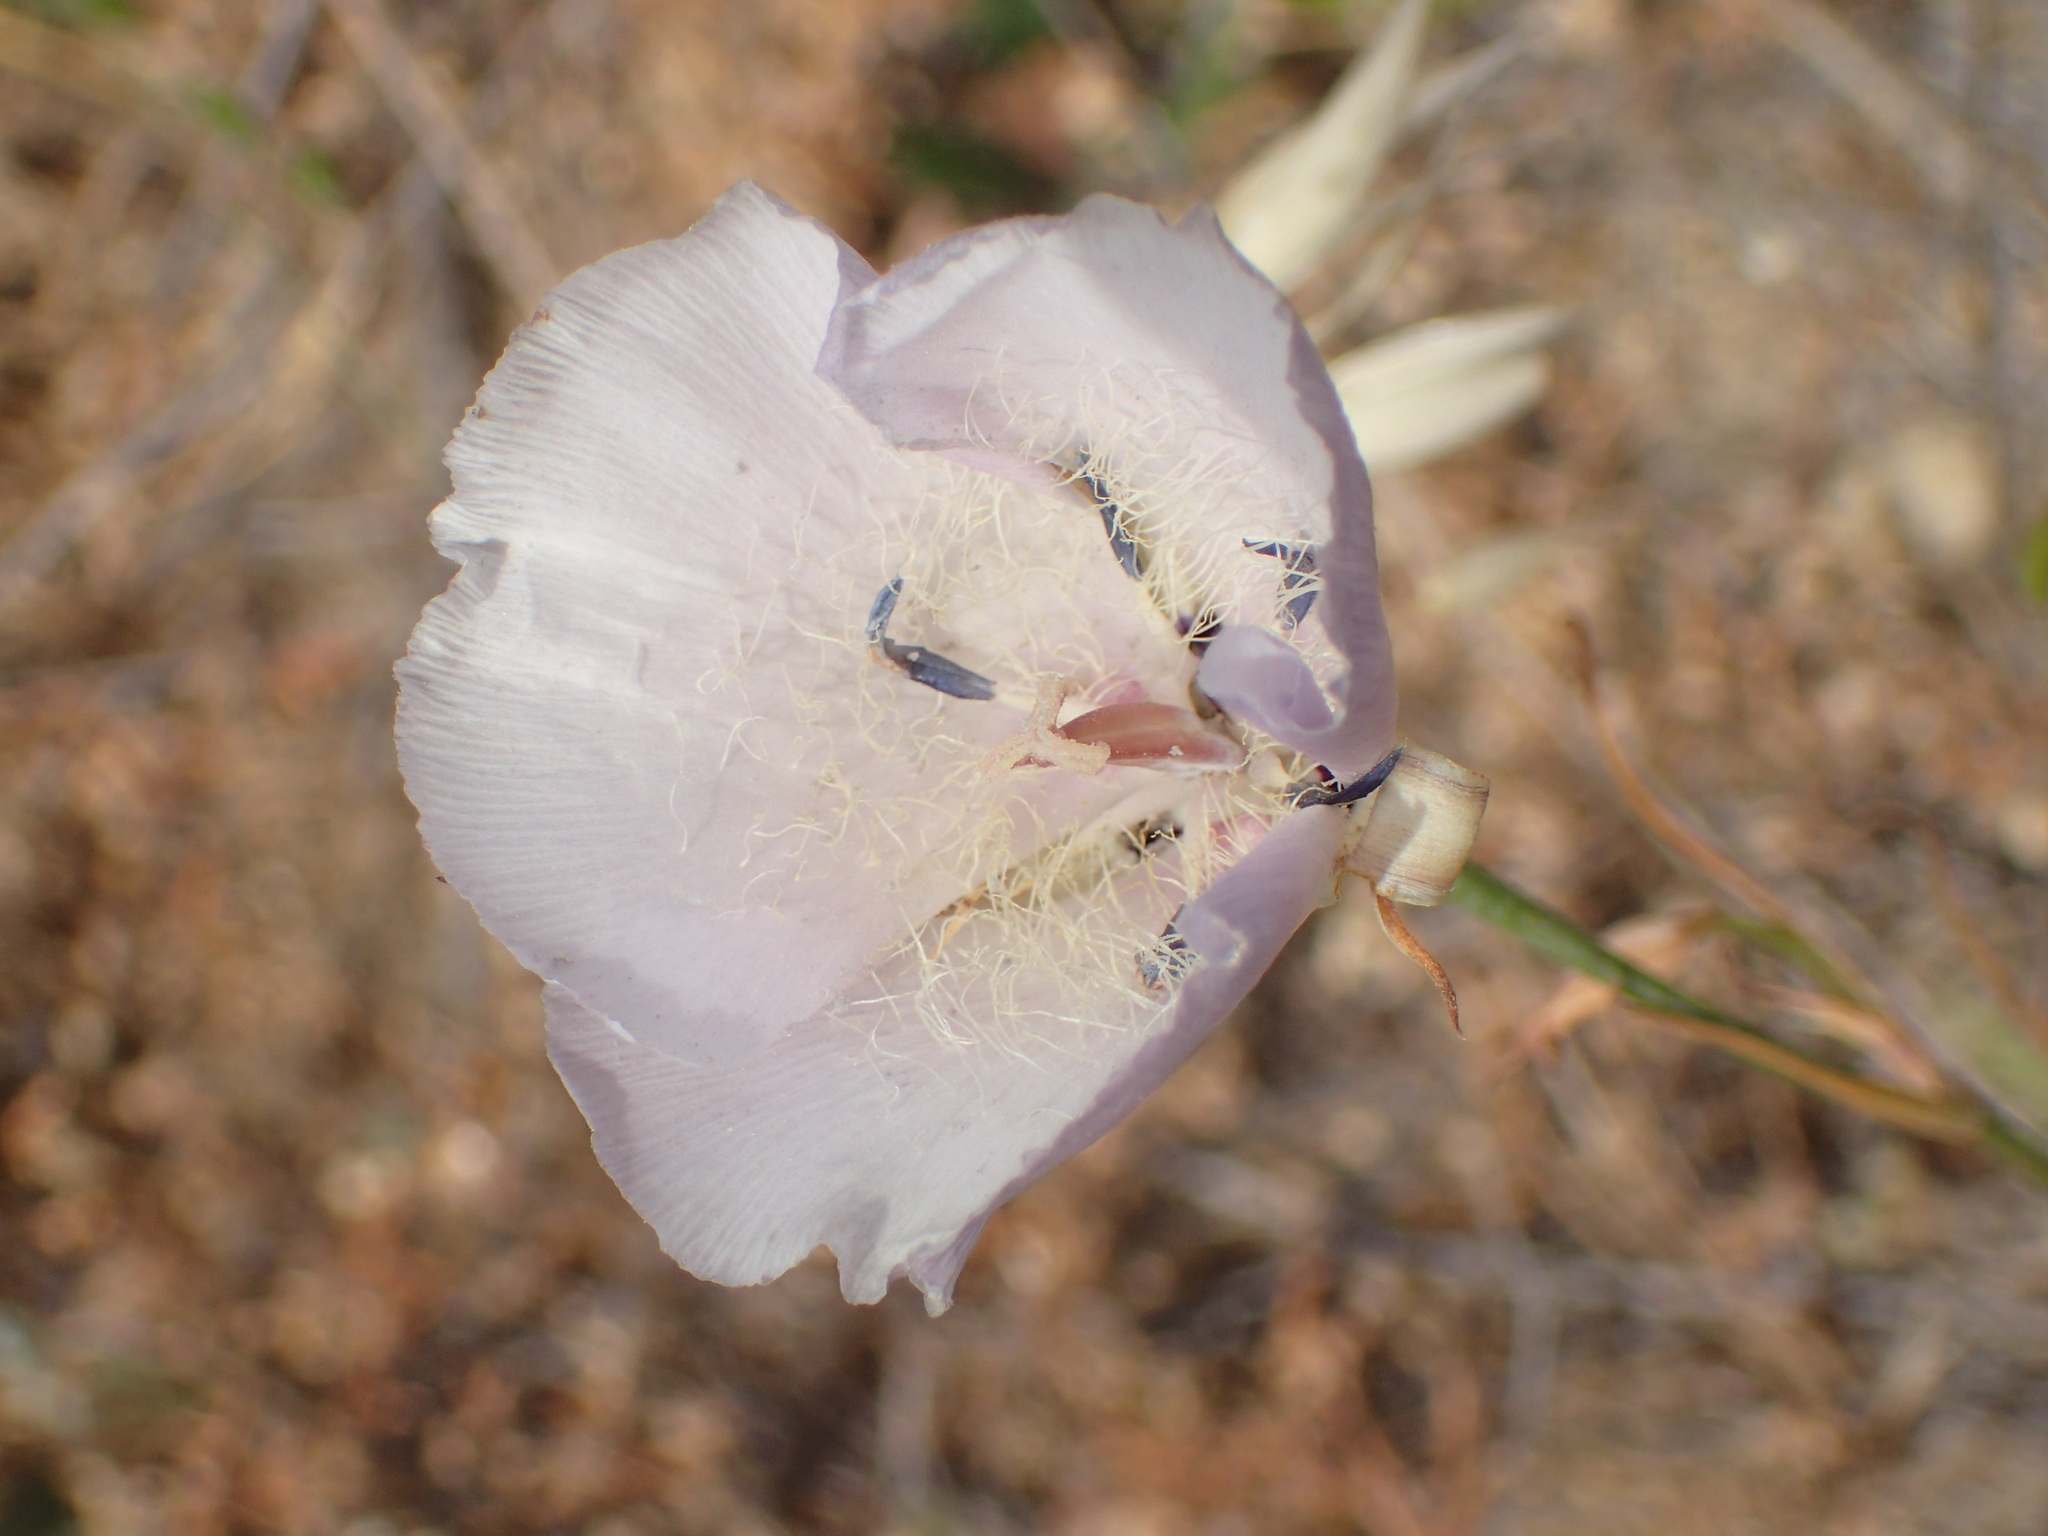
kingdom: Plantae
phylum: Tracheophyta
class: Liliopsida
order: Liliales
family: Liliaceae
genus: Calochortus
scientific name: Calochortus splendens
